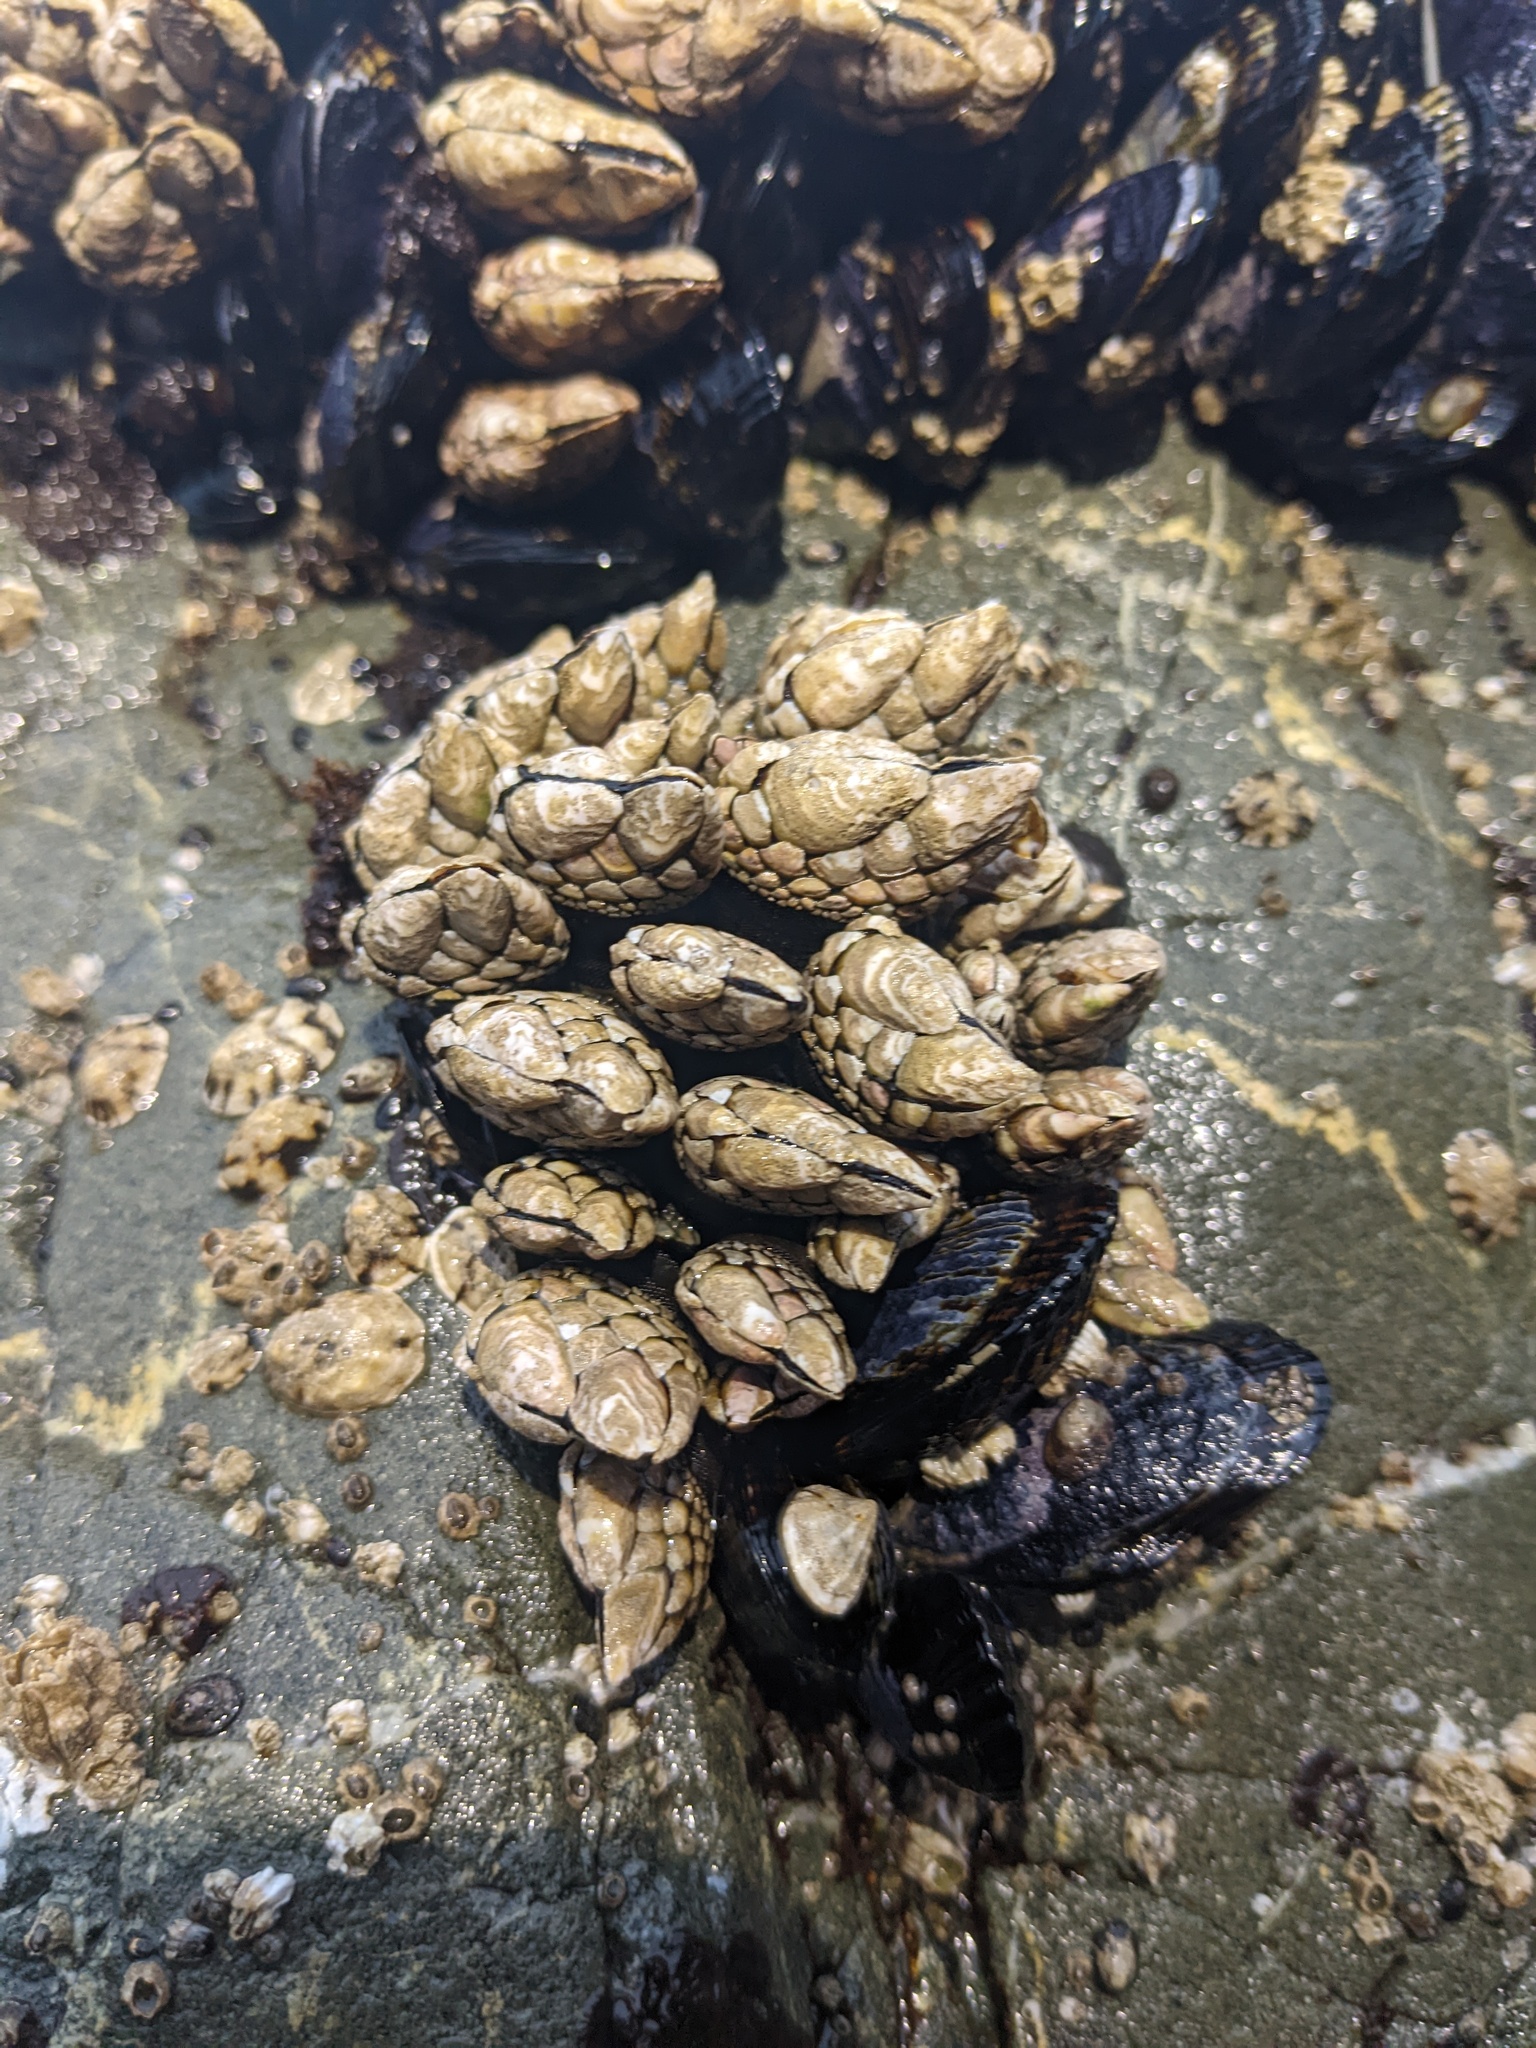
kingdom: Animalia
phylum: Arthropoda
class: Maxillopoda
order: Pedunculata
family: Pollicipedidae
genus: Pollicipes
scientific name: Pollicipes polymerus
